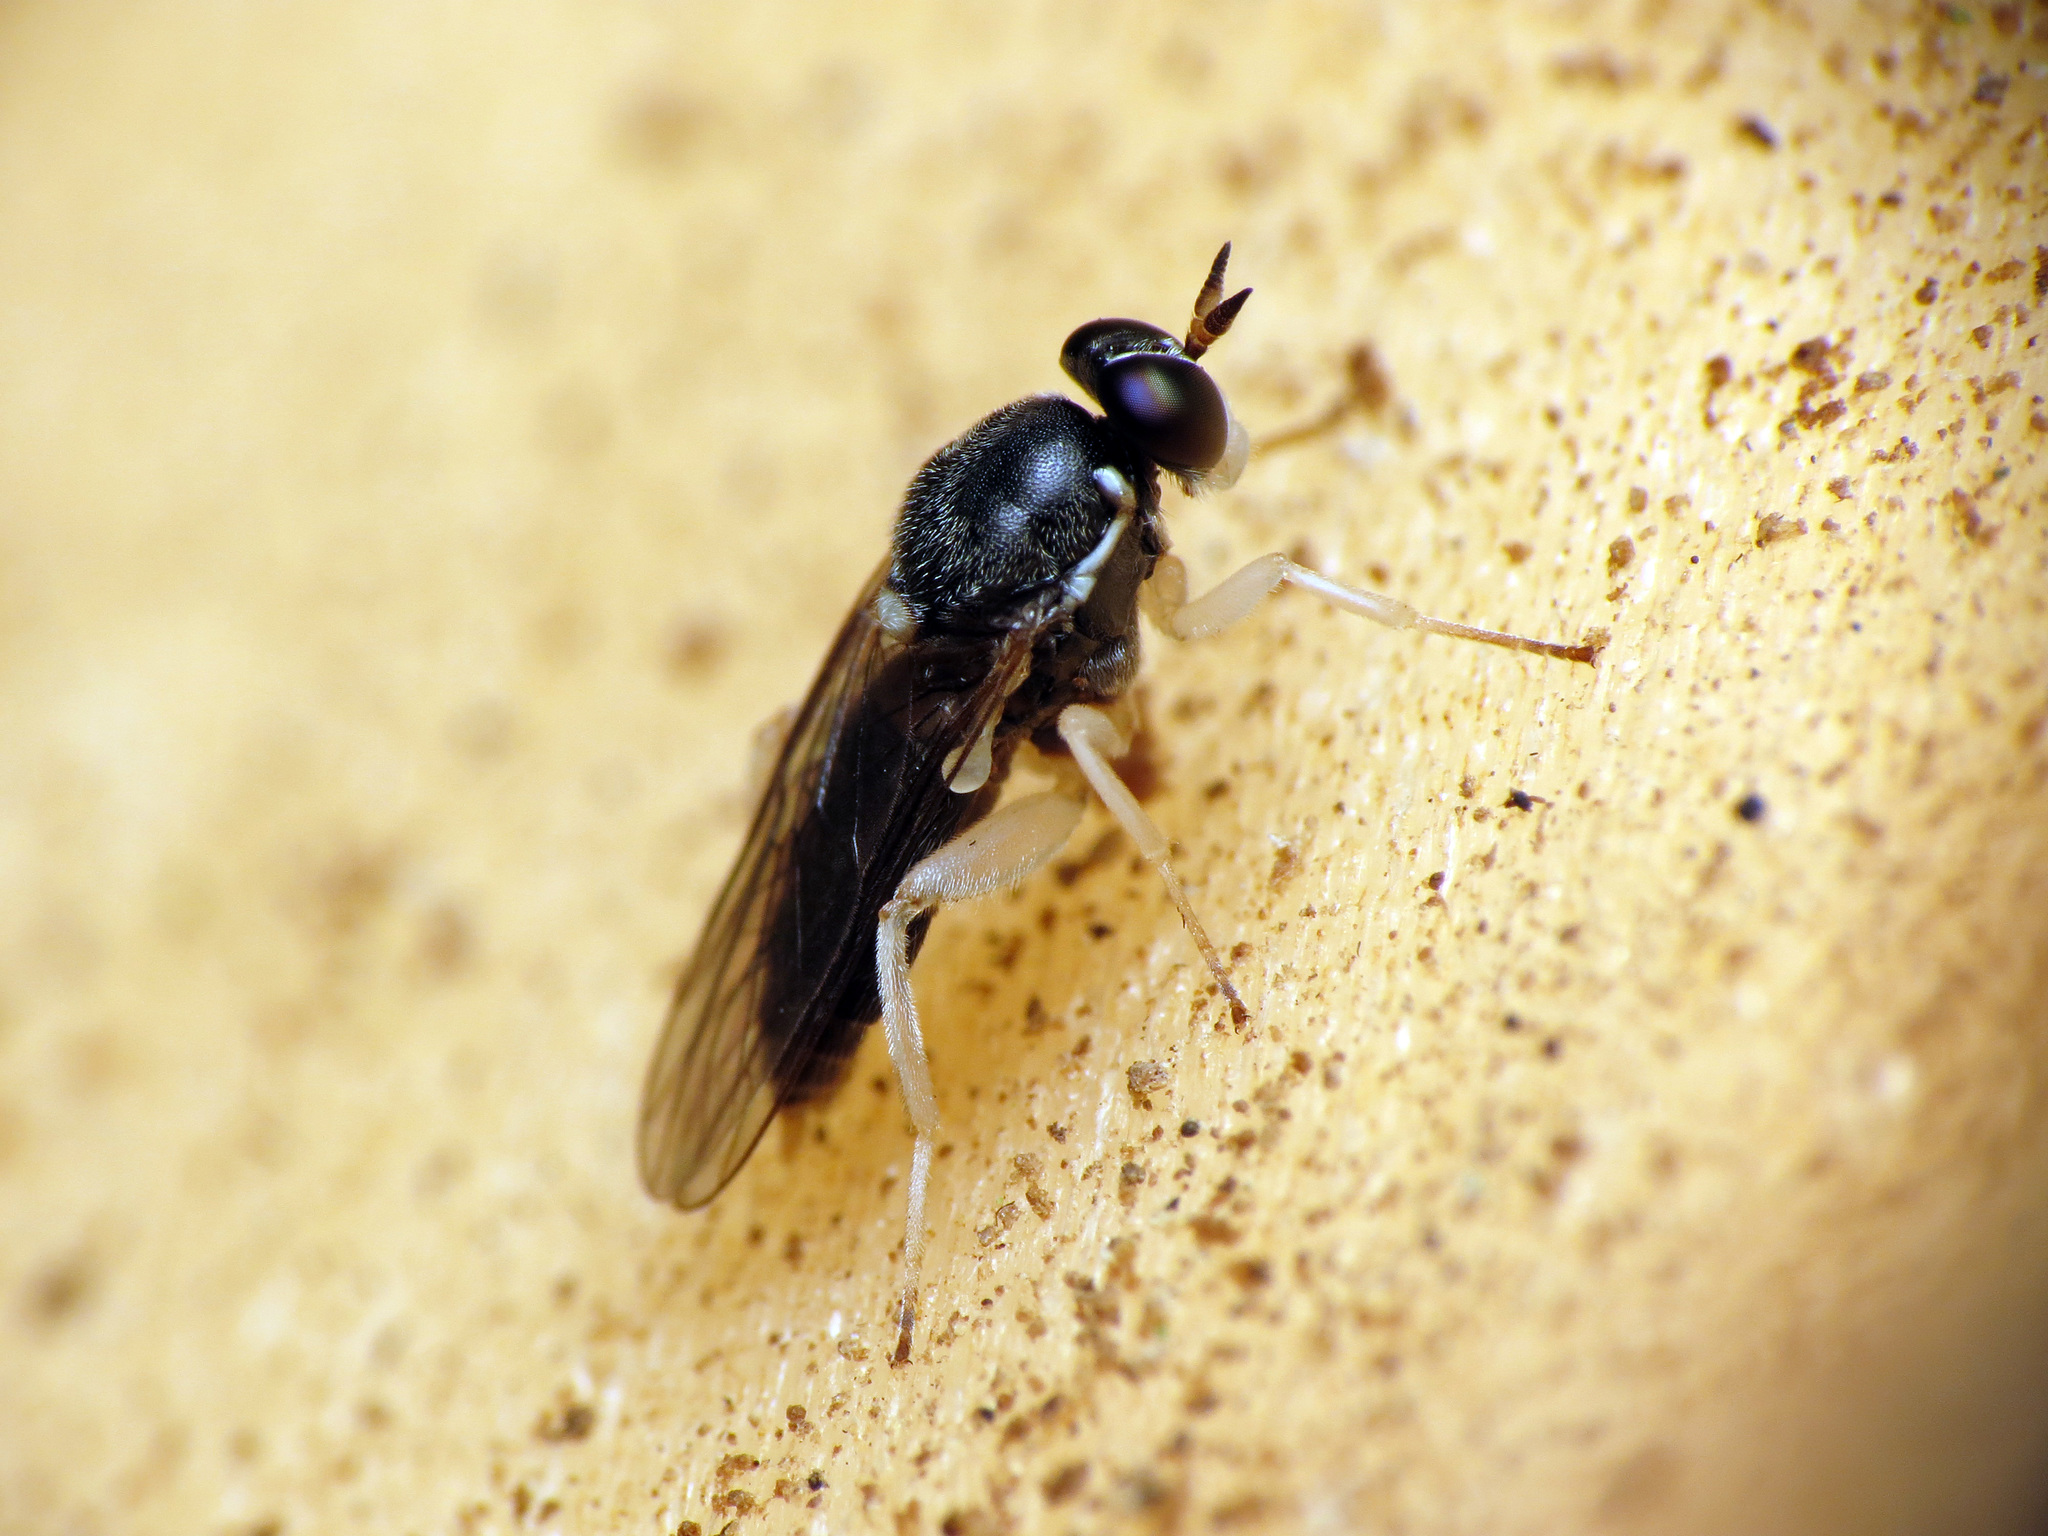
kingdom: Animalia
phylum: Arthropoda
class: Insecta
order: Diptera
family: Xylomyidae
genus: Solva
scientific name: Solva crepuscula
